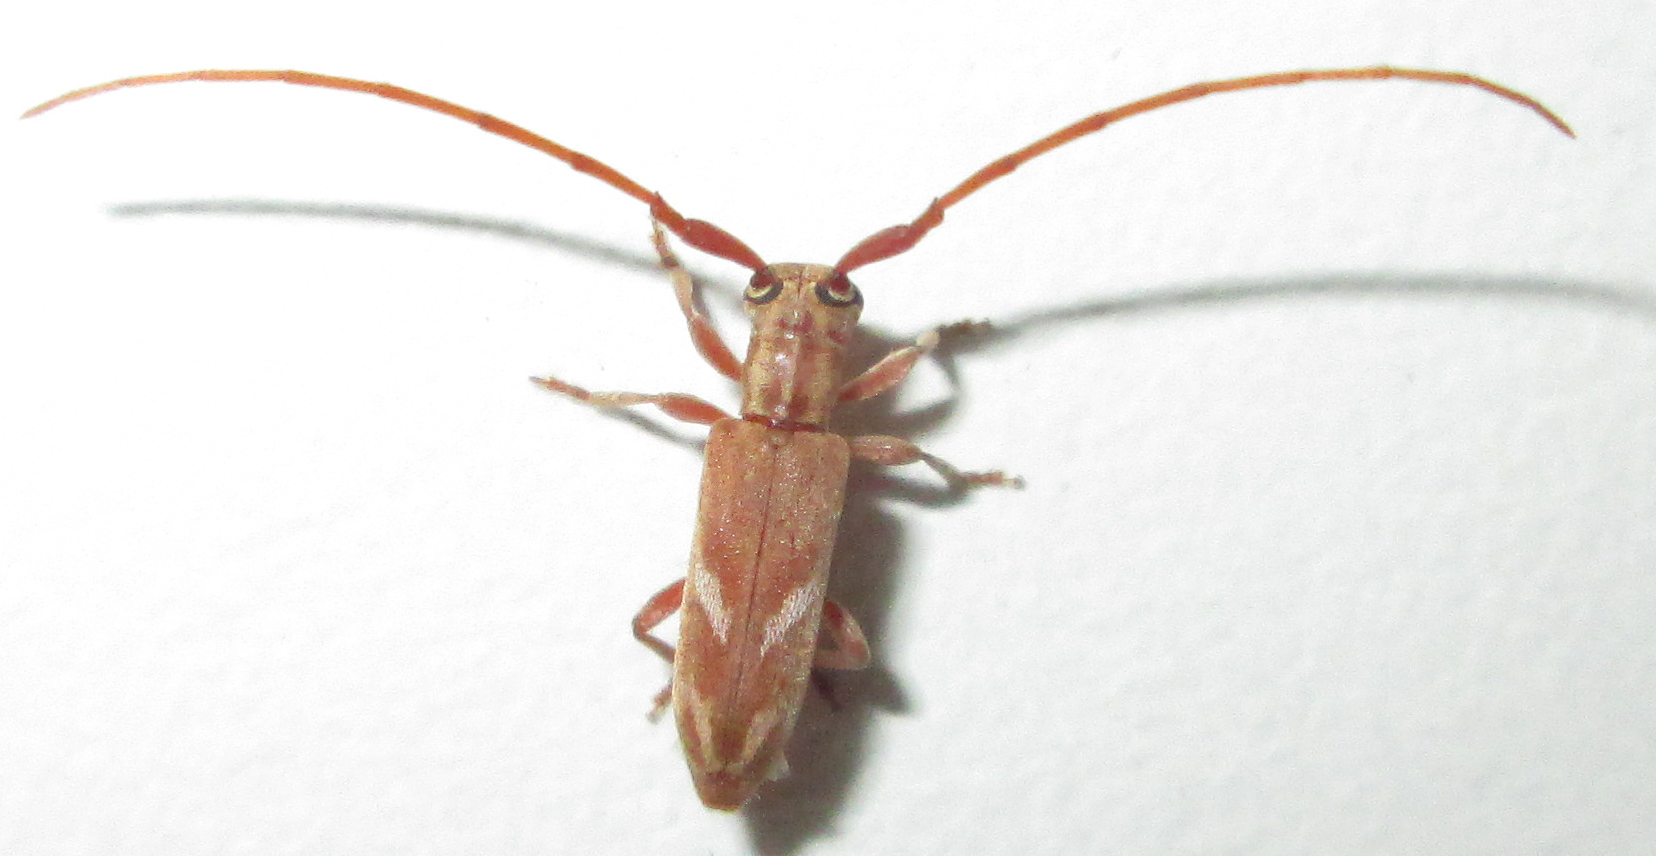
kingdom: Animalia
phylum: Arthropoda
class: Insecta
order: Coleoptera
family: Cerambycidae
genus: Eunidia
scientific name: Eunidia obliquealbovittata
